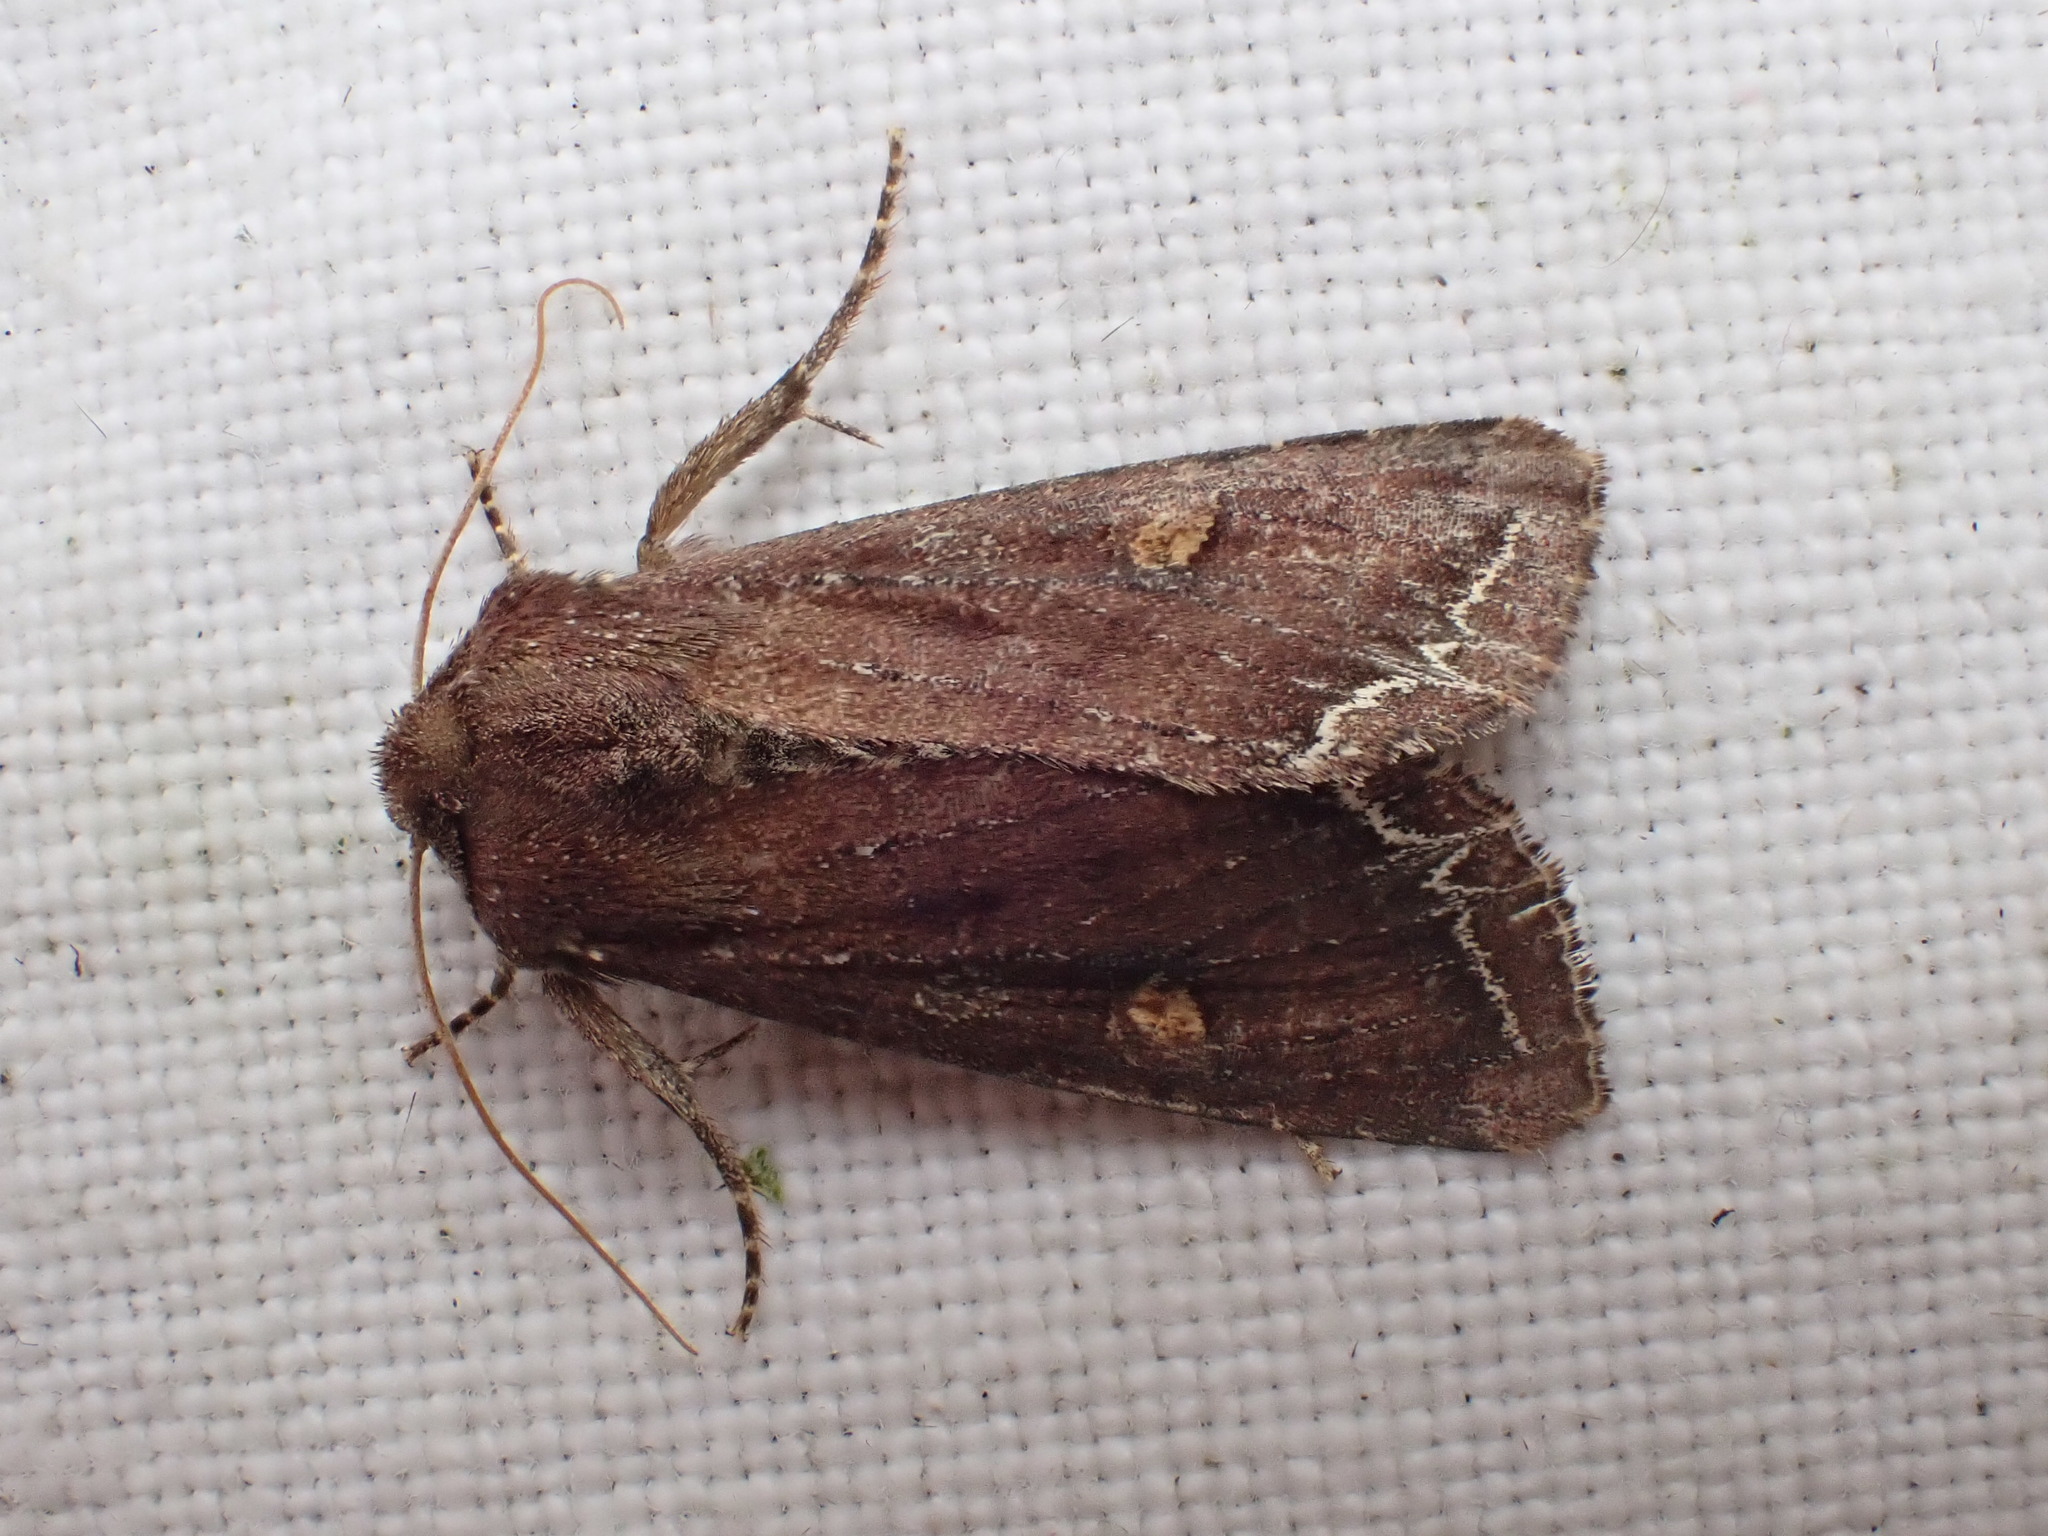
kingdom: Animalia
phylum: Arthropoda
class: Insecta
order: Lepidoptera
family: Noctuidae
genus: Lacanobia
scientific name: Lacanobia oleracea
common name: Bright-line brown-eye
